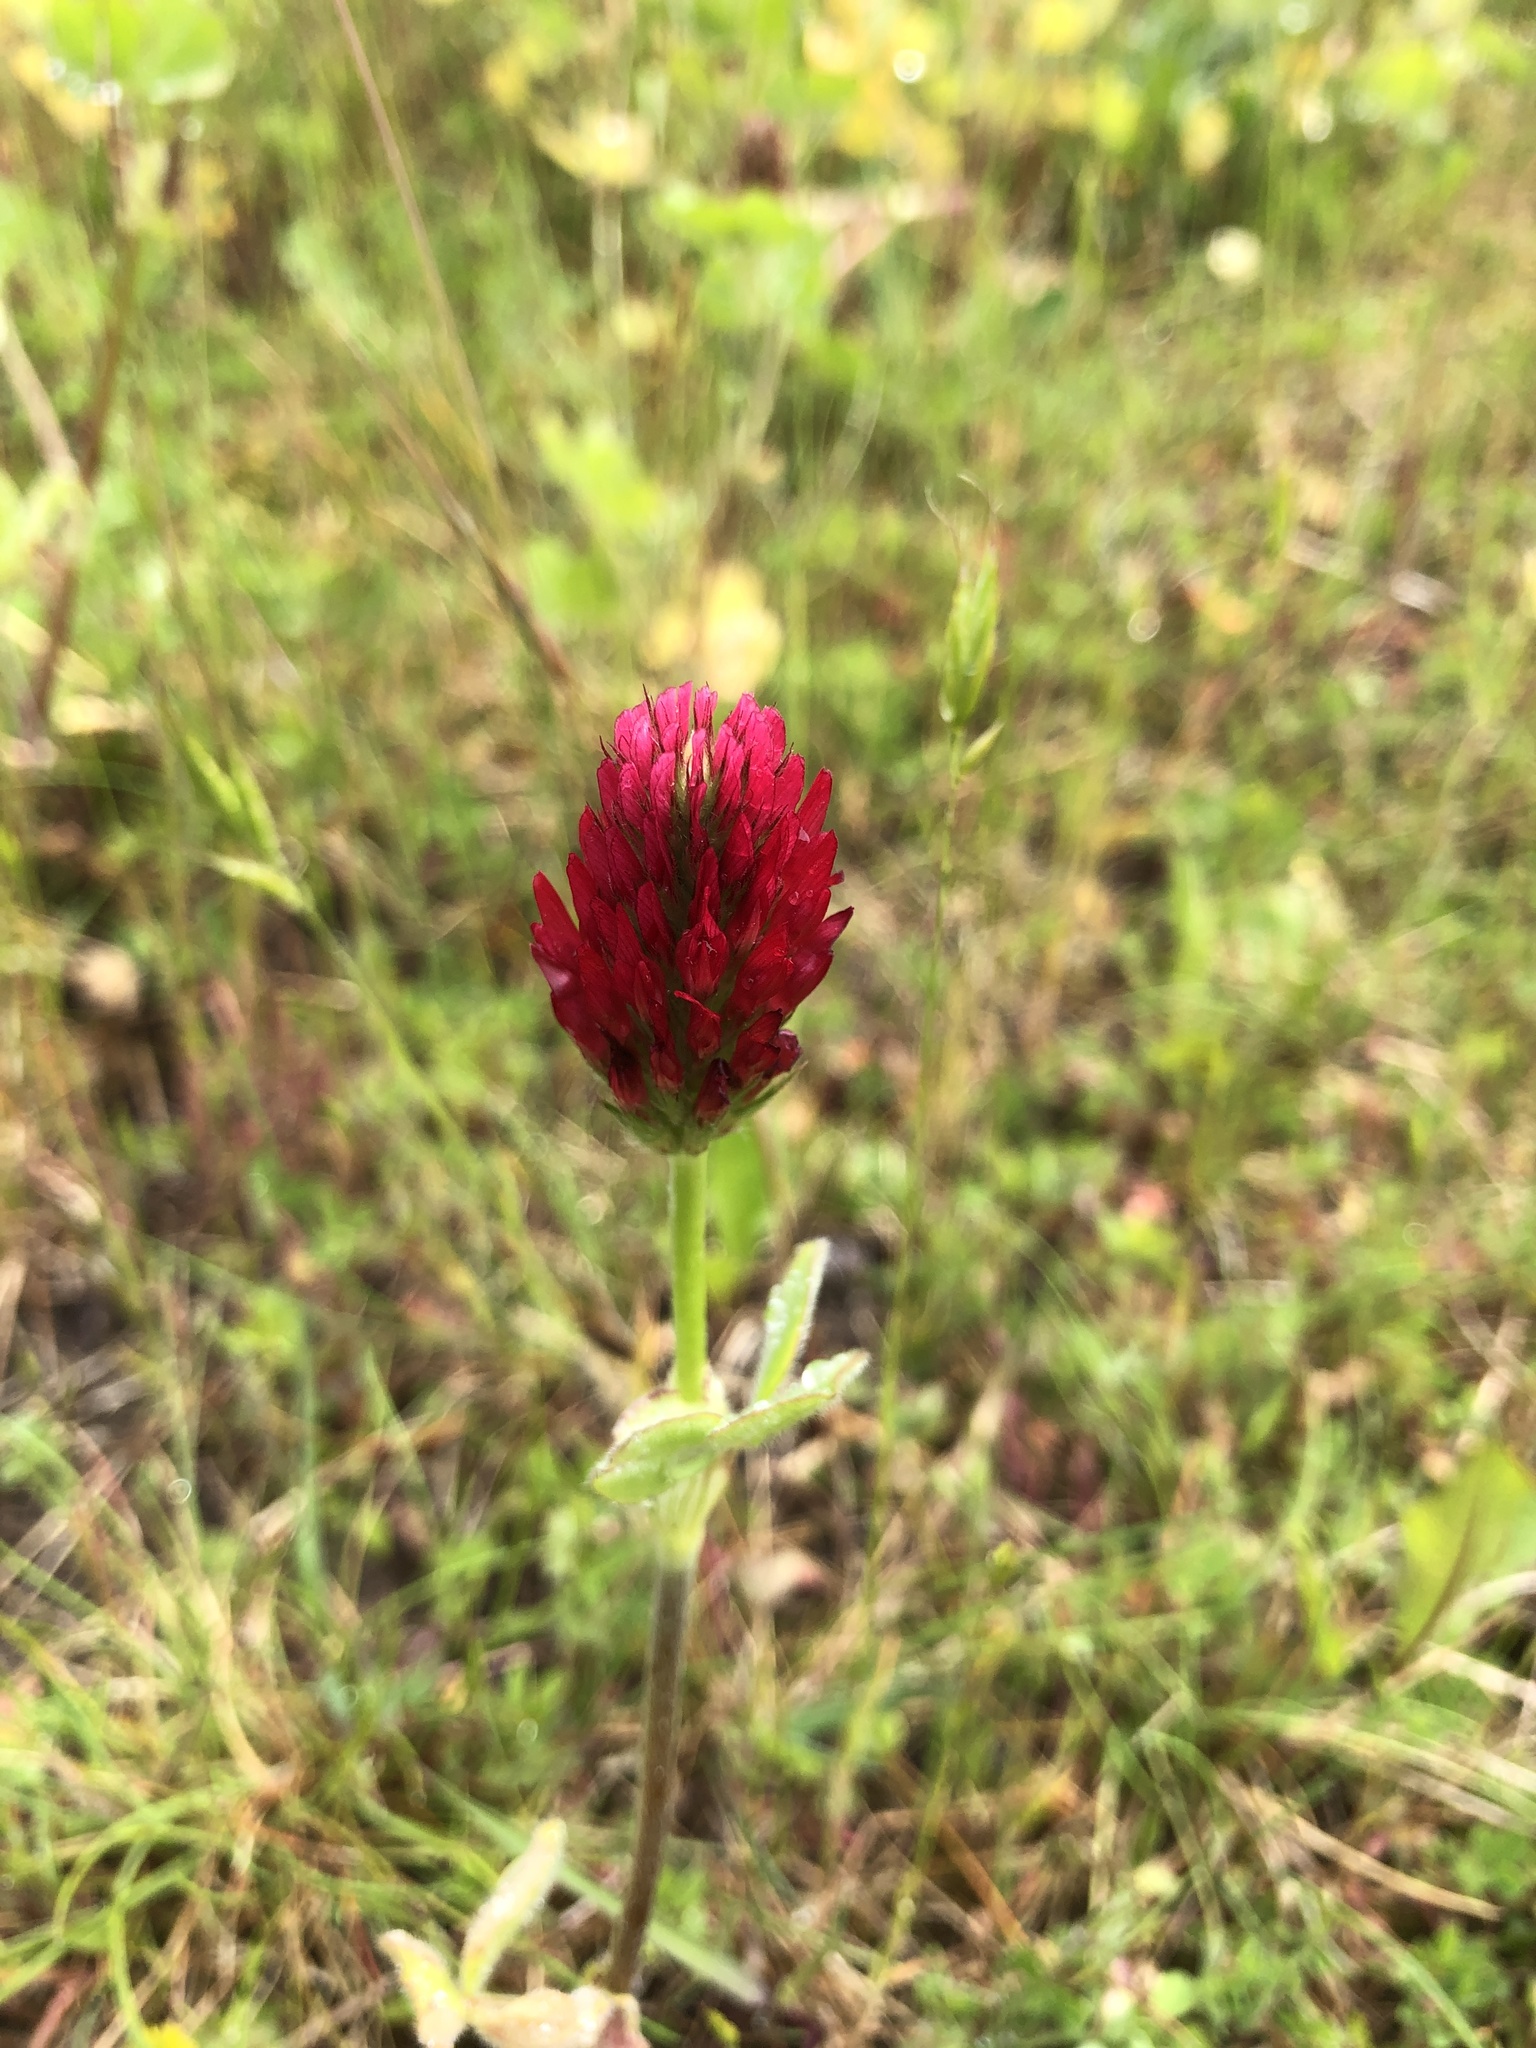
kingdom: Plantae
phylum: Tracheophyta
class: Magnoliopsida
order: Fabales
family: Fabaceae
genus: Trifolium
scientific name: Trifolium incarnatum
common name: Crimson clover
